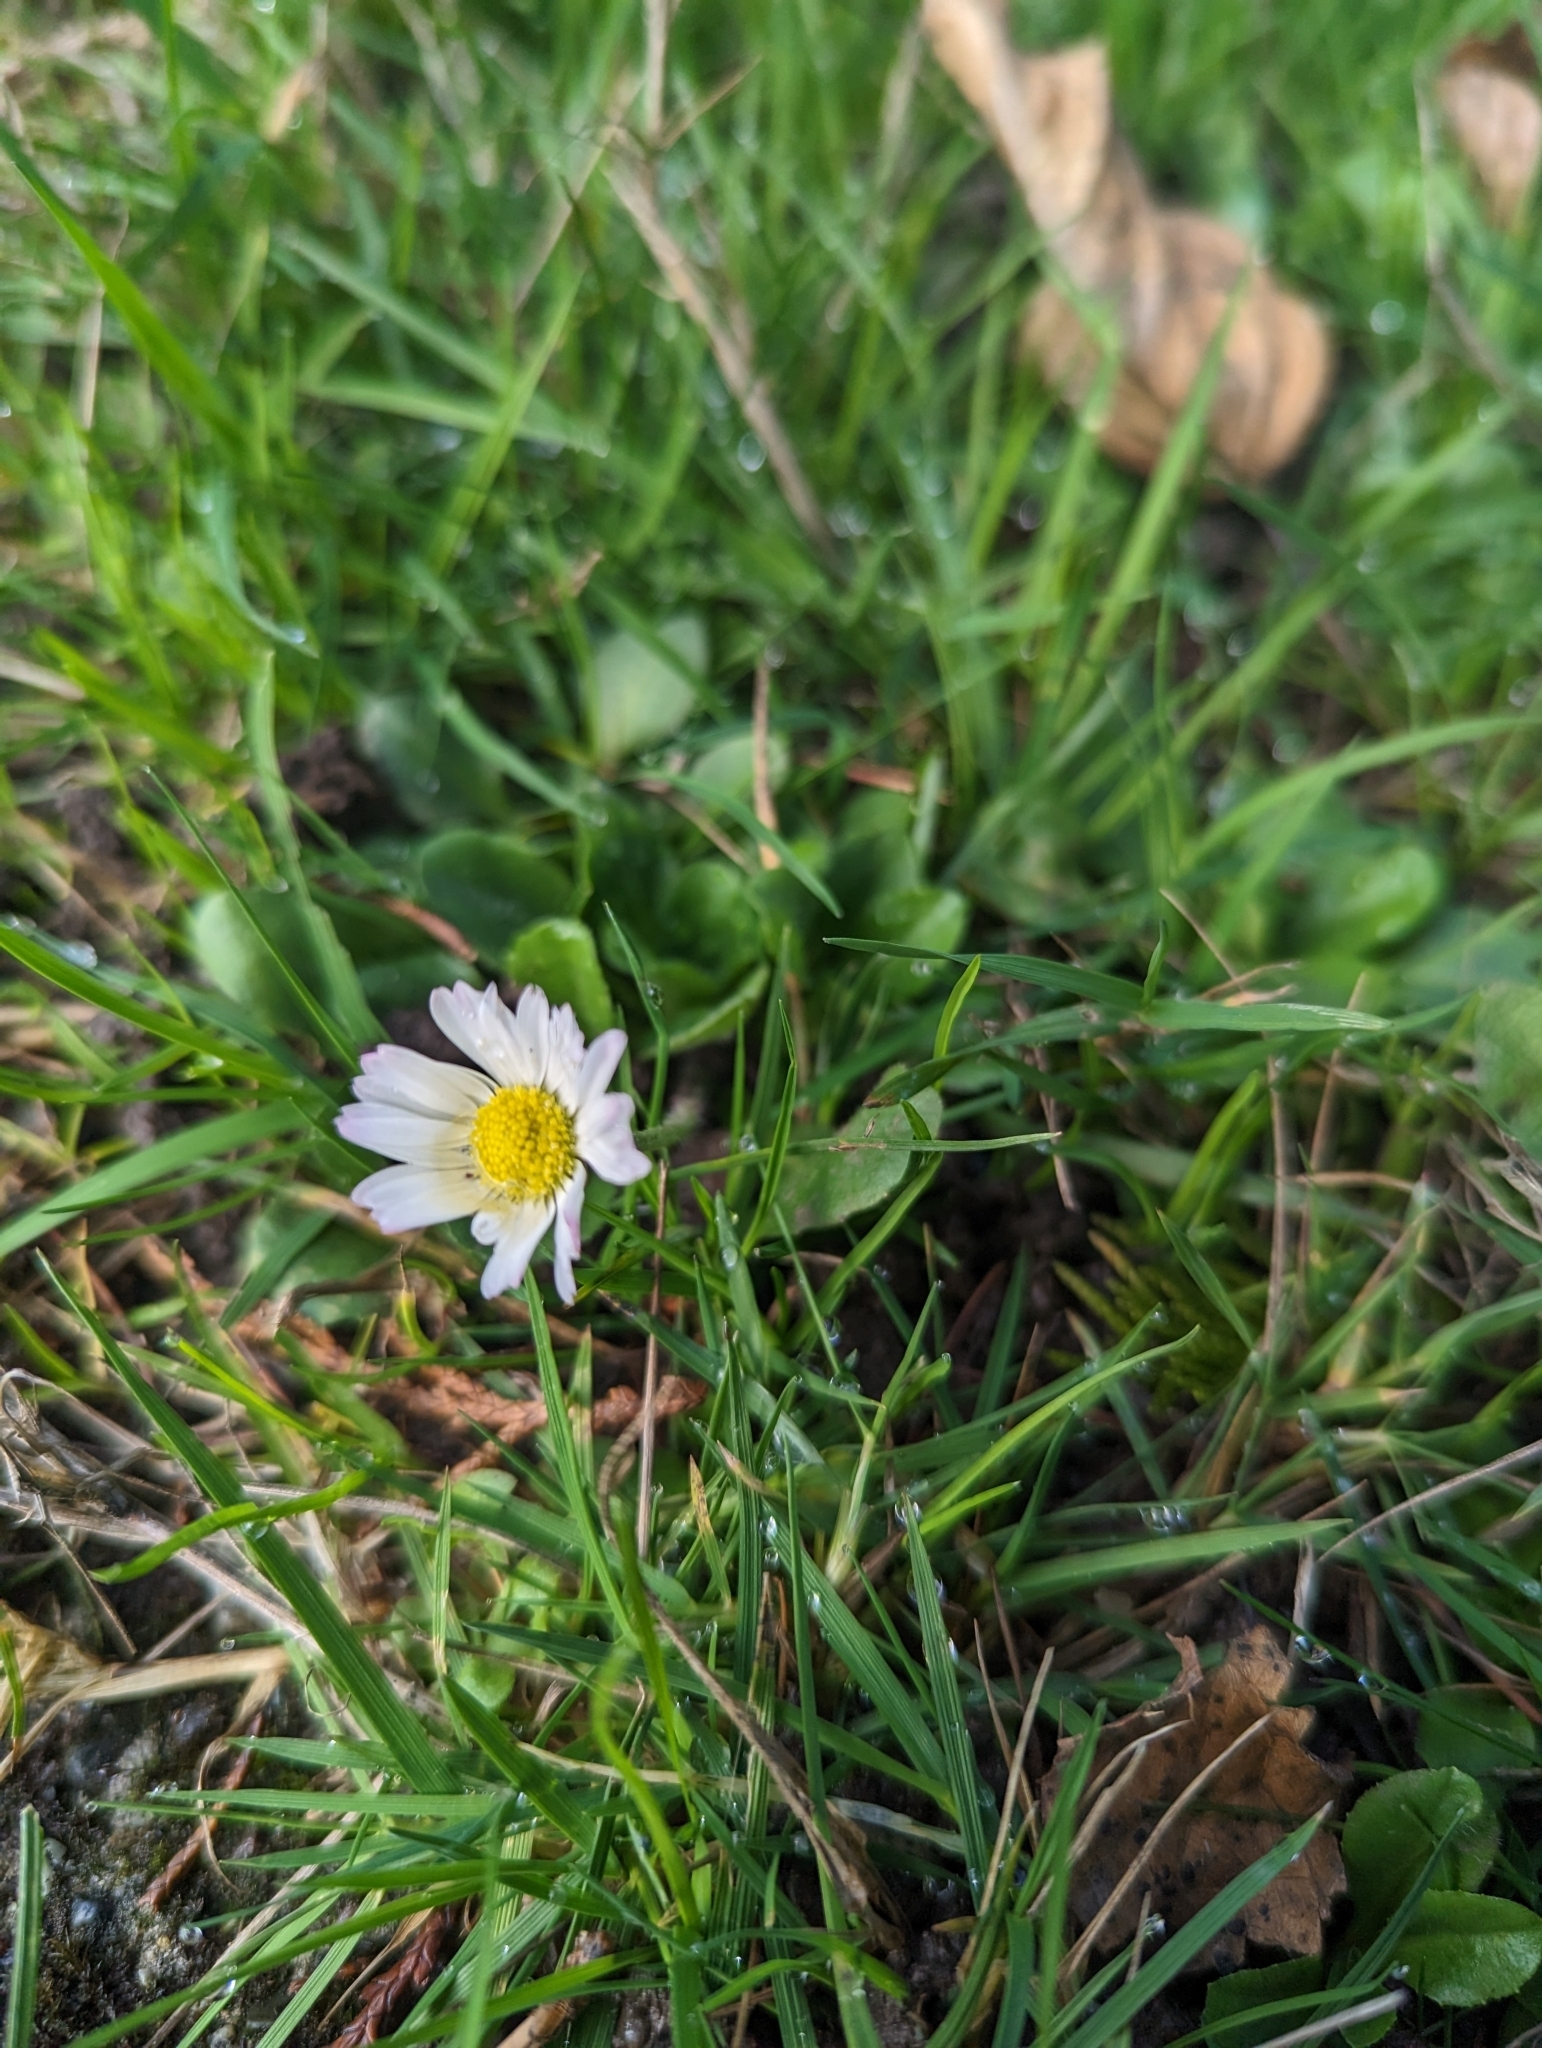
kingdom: Plantae
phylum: Tracheophyta
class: Magnoliopsida
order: Asterales
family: Asteraceae
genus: Bellis
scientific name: Bellis perennis
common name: Lawndaisy
